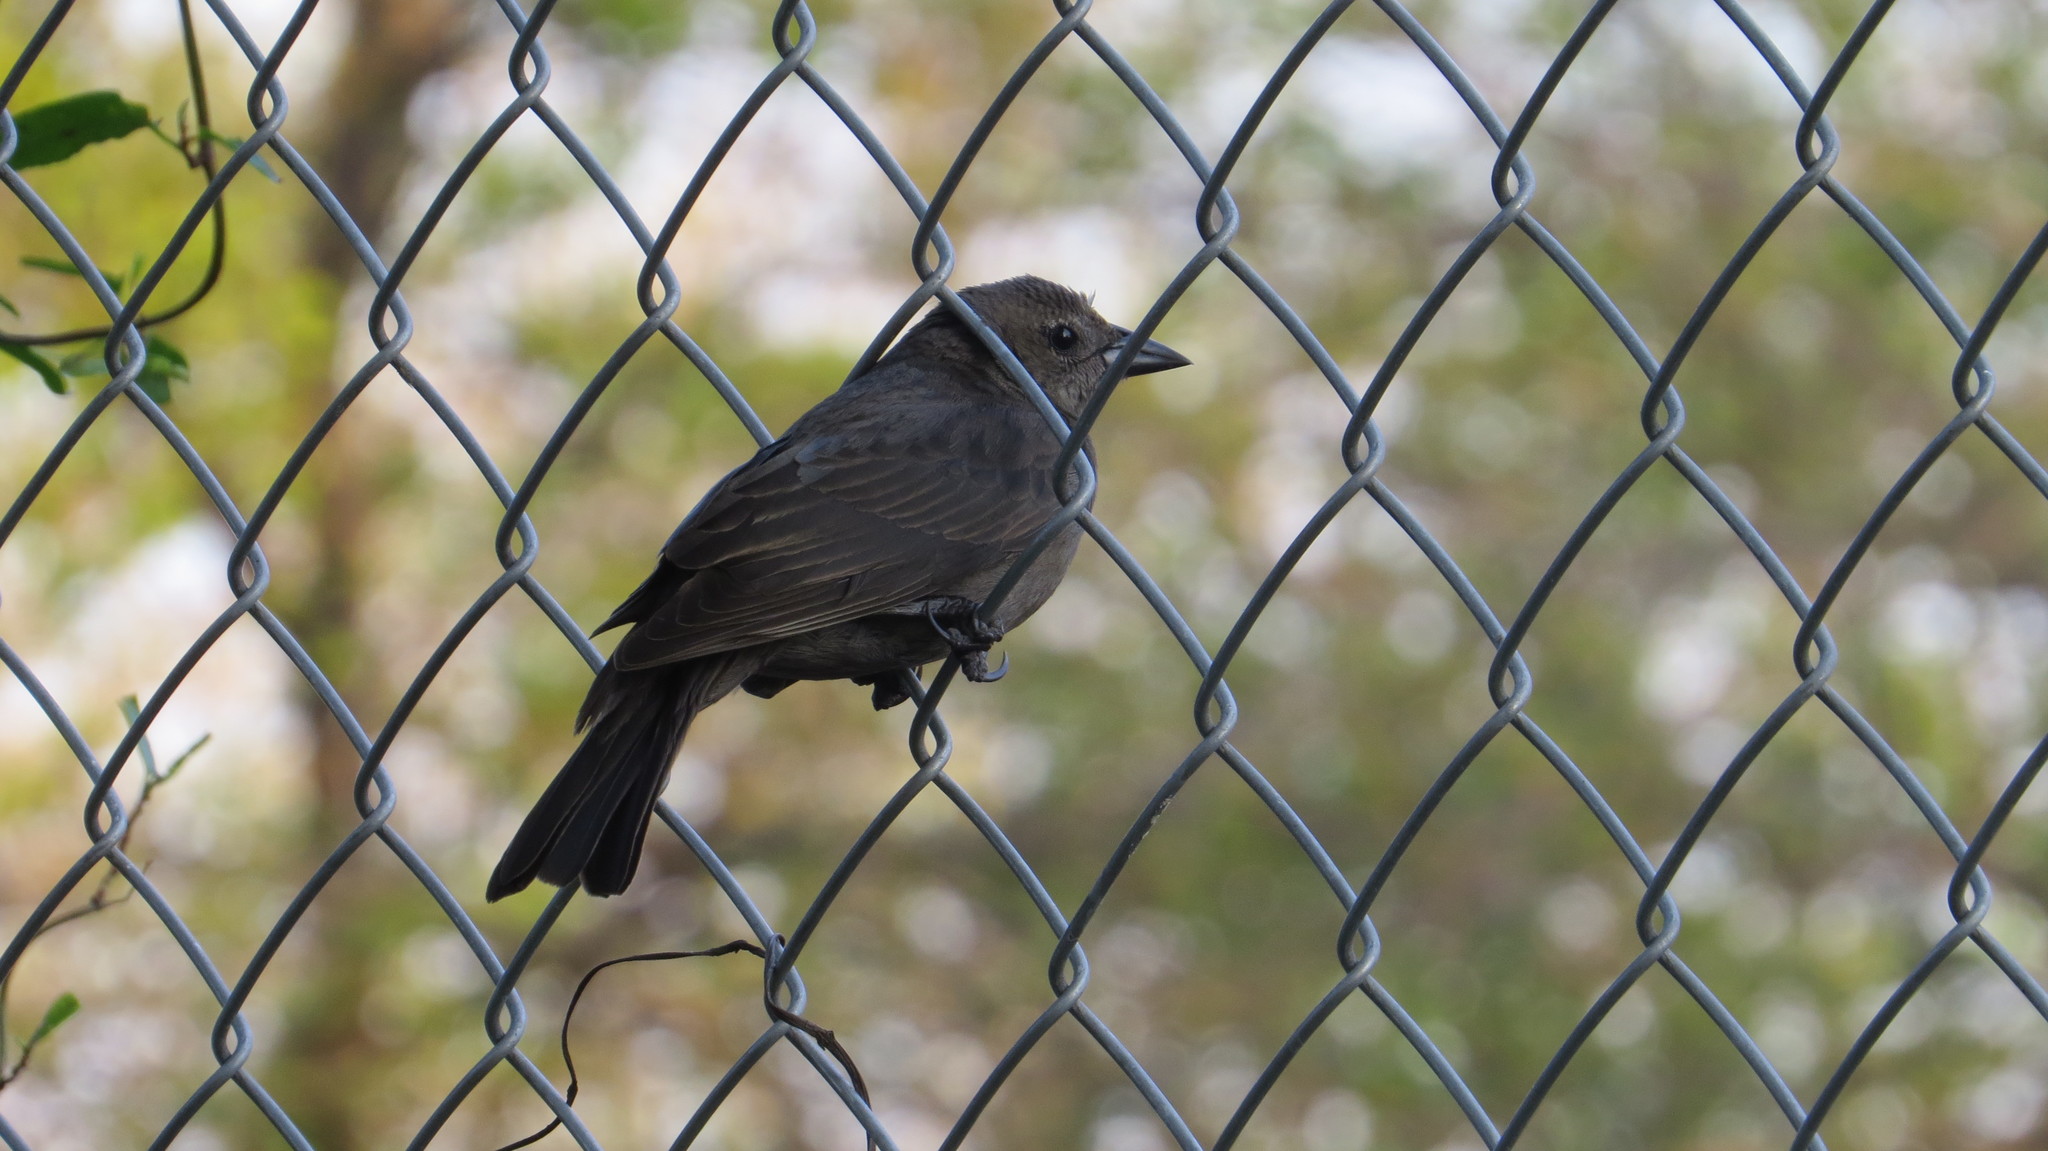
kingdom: Animalia
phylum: Chordata
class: Aves
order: Passeriformes
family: Icteridae
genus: Molothrus
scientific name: Molothrus bonariensis
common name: Shiny cowbird
